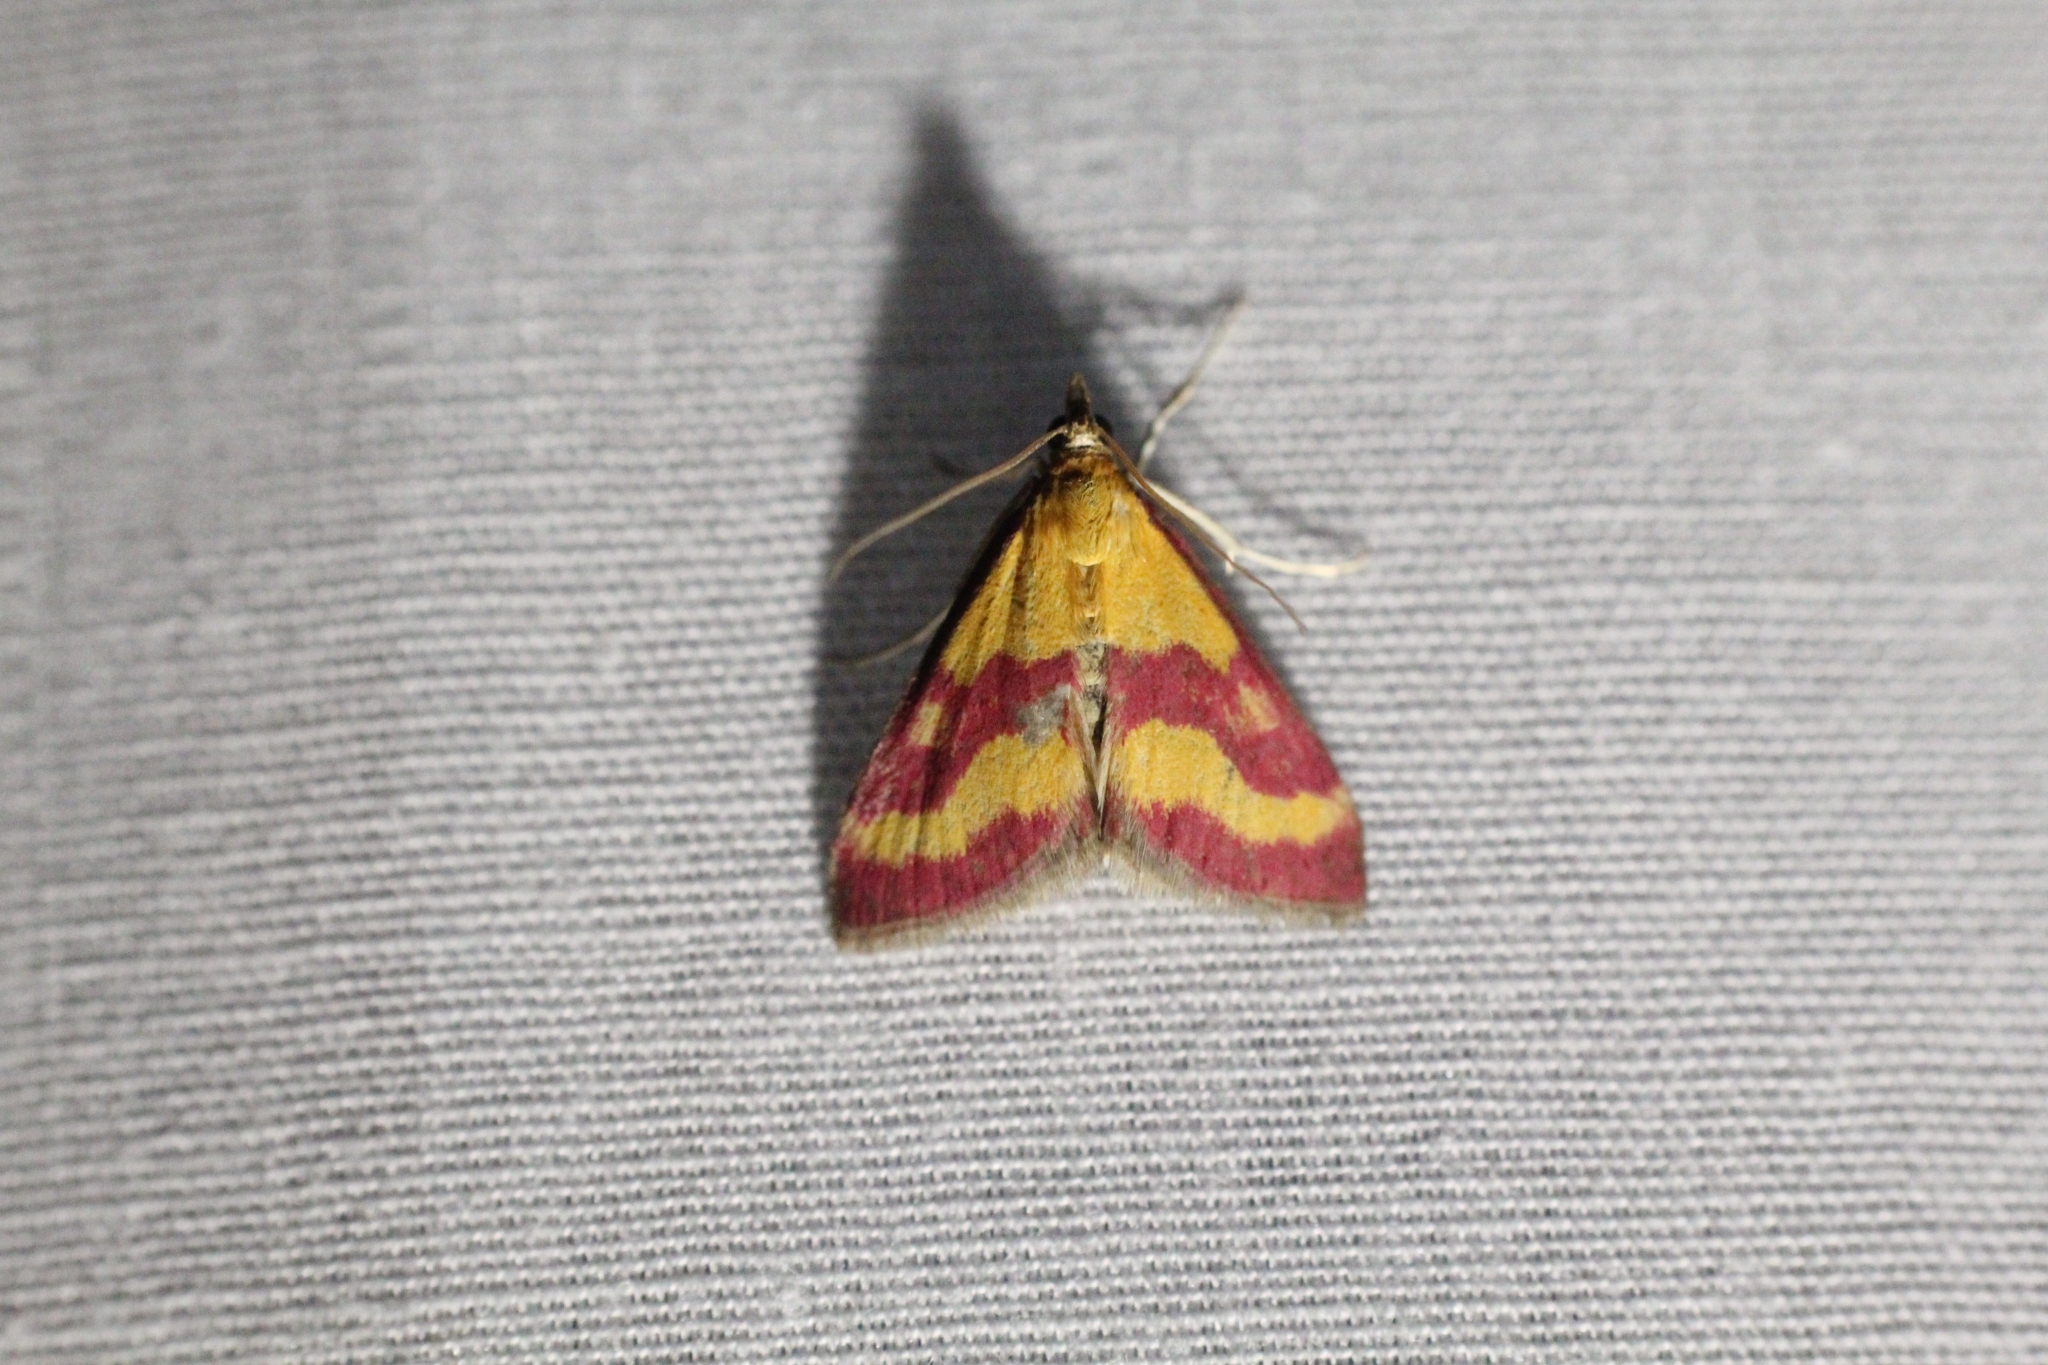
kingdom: Animalia
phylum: Arthropoda
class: Insecta
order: Lepidoptera
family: Crambidae
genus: Pyrausta
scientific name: Pyrausta sanguinalis
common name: Scarce crimson and gold
